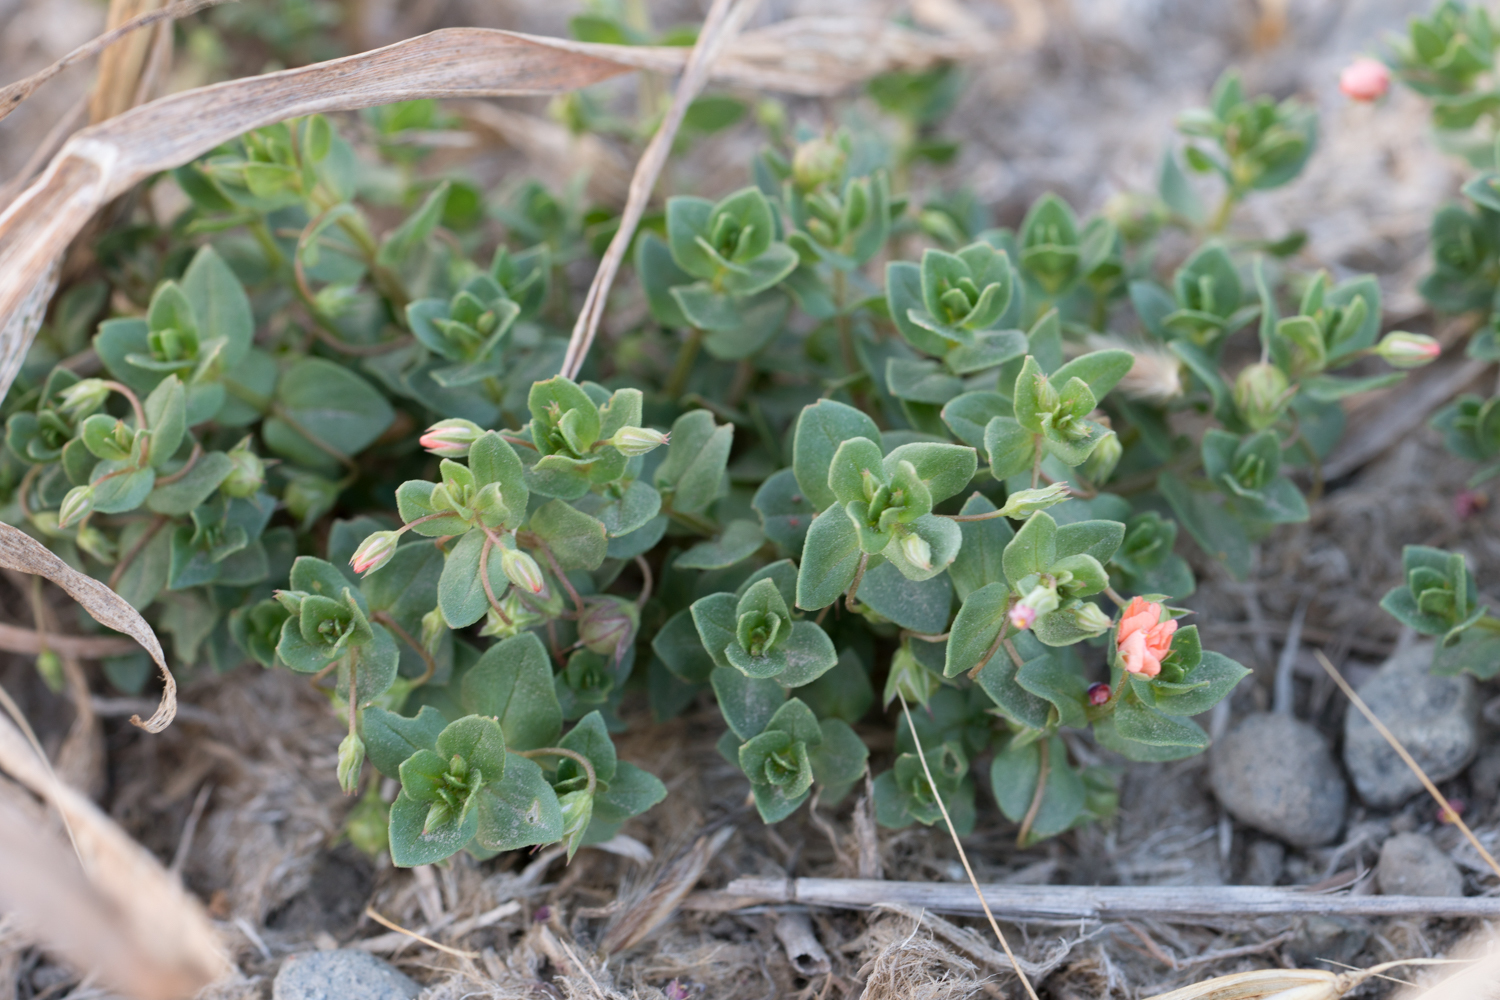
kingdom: Plantae
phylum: Tracheophyta
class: Magnoliopsida
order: Ericales
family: Primulaceae
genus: Lysimachia
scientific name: Lysimachia arvensis
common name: Scarlet pimpernel
